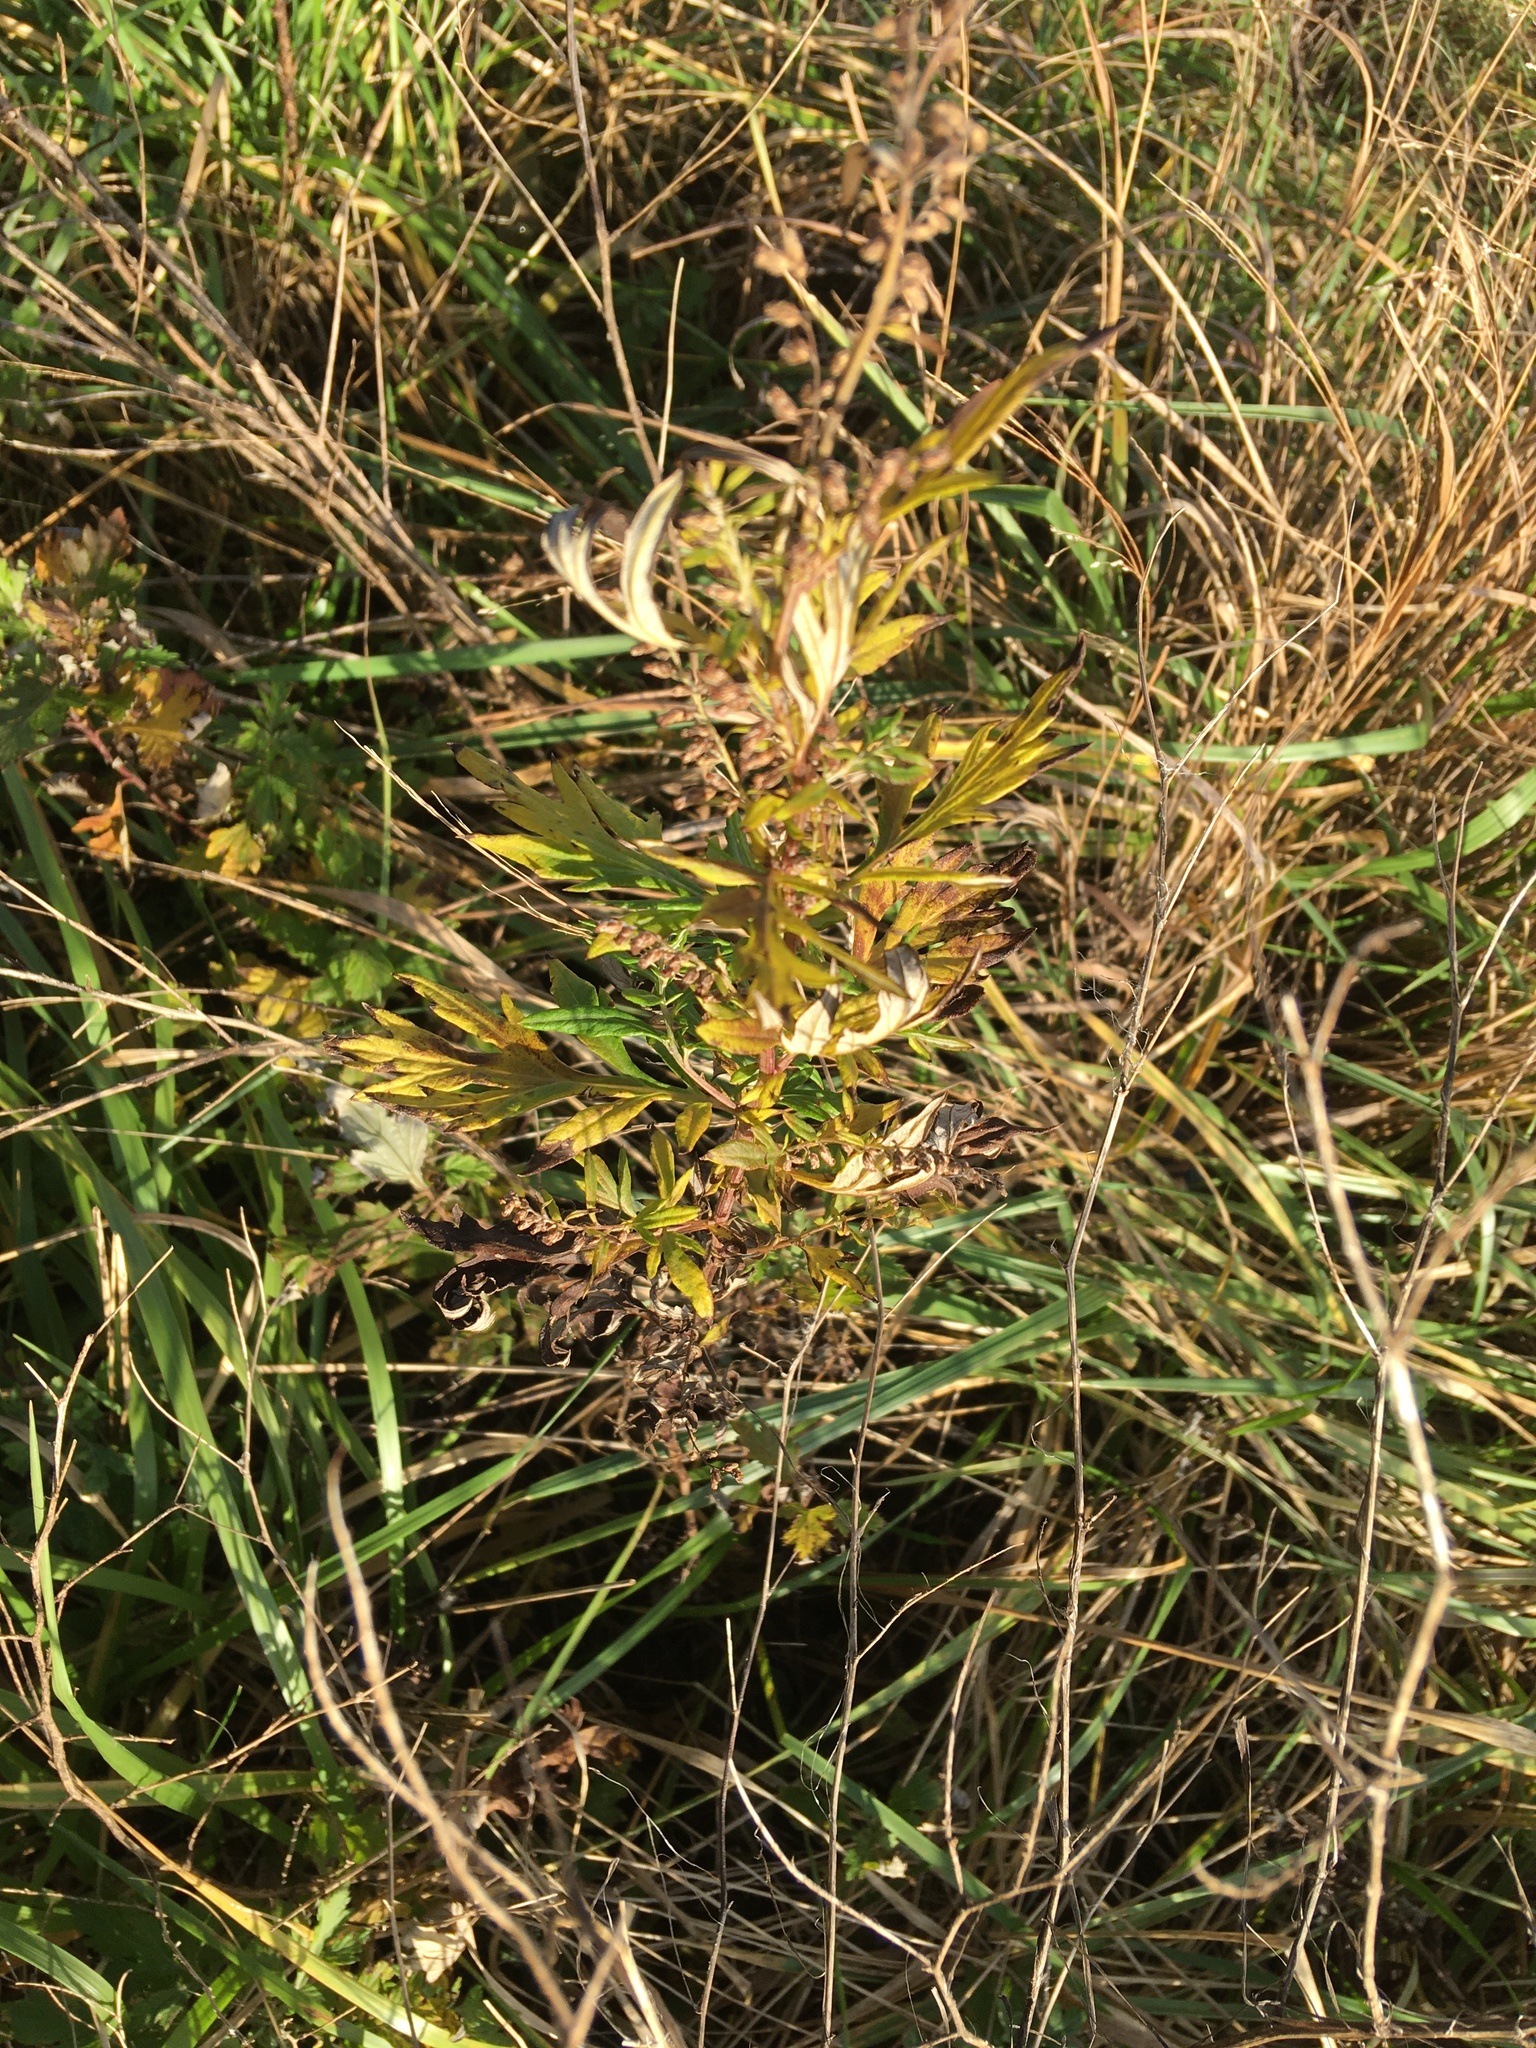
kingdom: Plantae
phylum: Tracheophyta
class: Magnoliopsida
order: Asterales
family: Asteraceae
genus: Artemisia
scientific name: Artemisia vulgaris
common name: Mugwort
